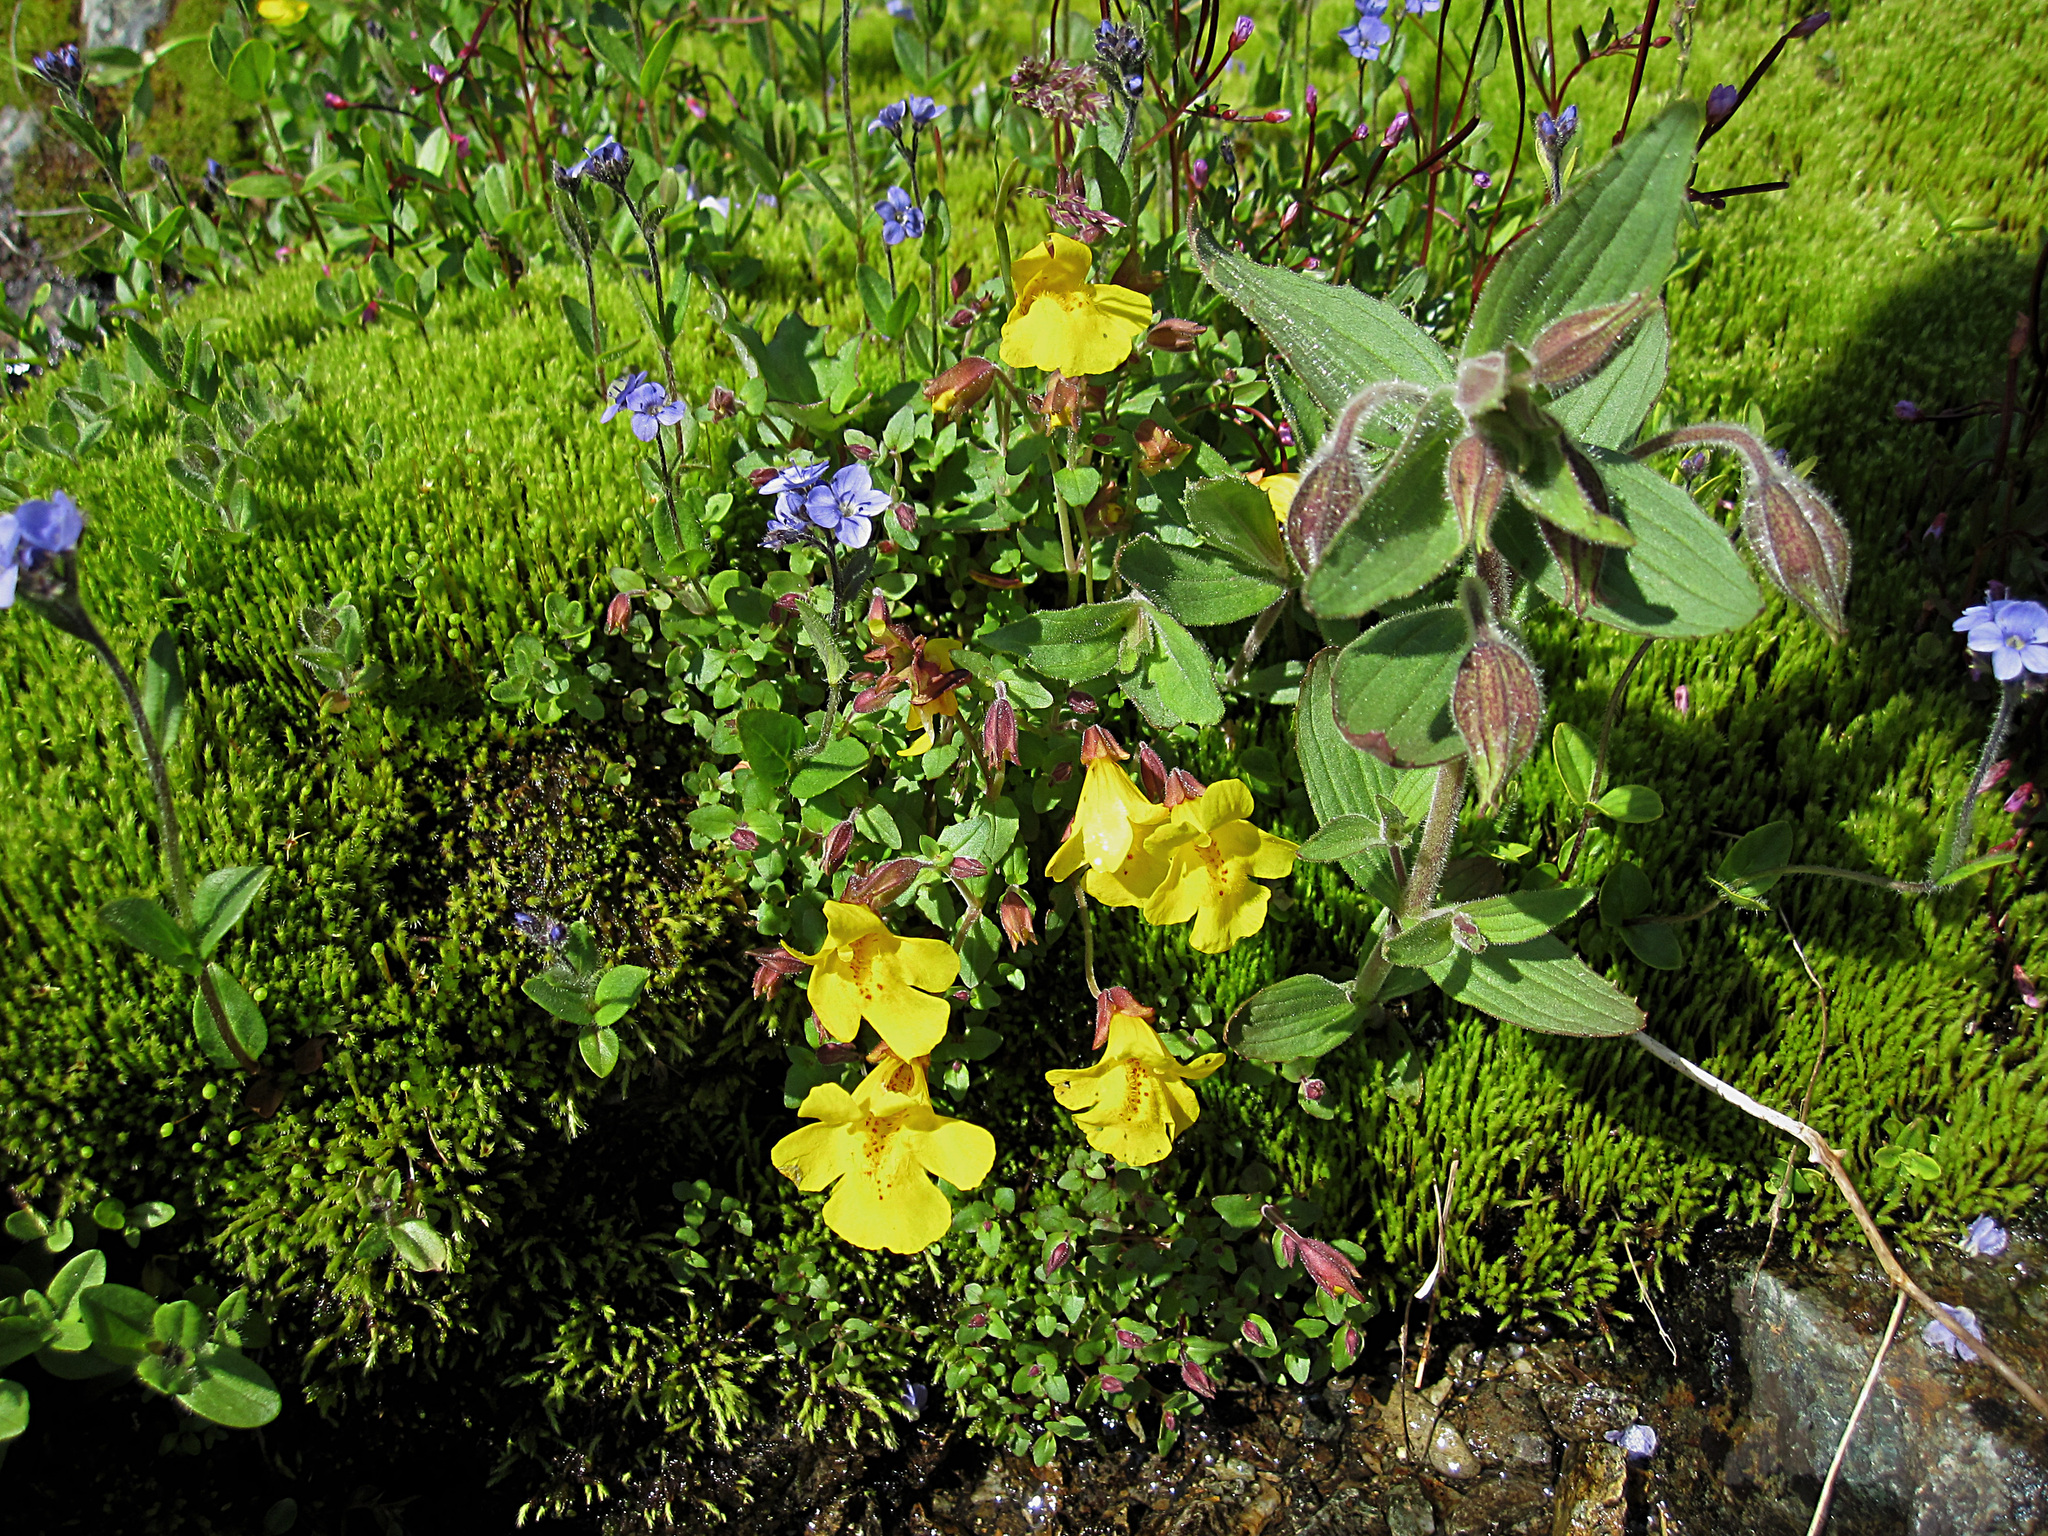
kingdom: Plantae
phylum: Tracheophyta
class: Magnoliopsida
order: Lamiales
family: Phrymaceae
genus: Erythranthe
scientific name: Erythranthe caespitosa
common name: Subalpine monkeyflower
